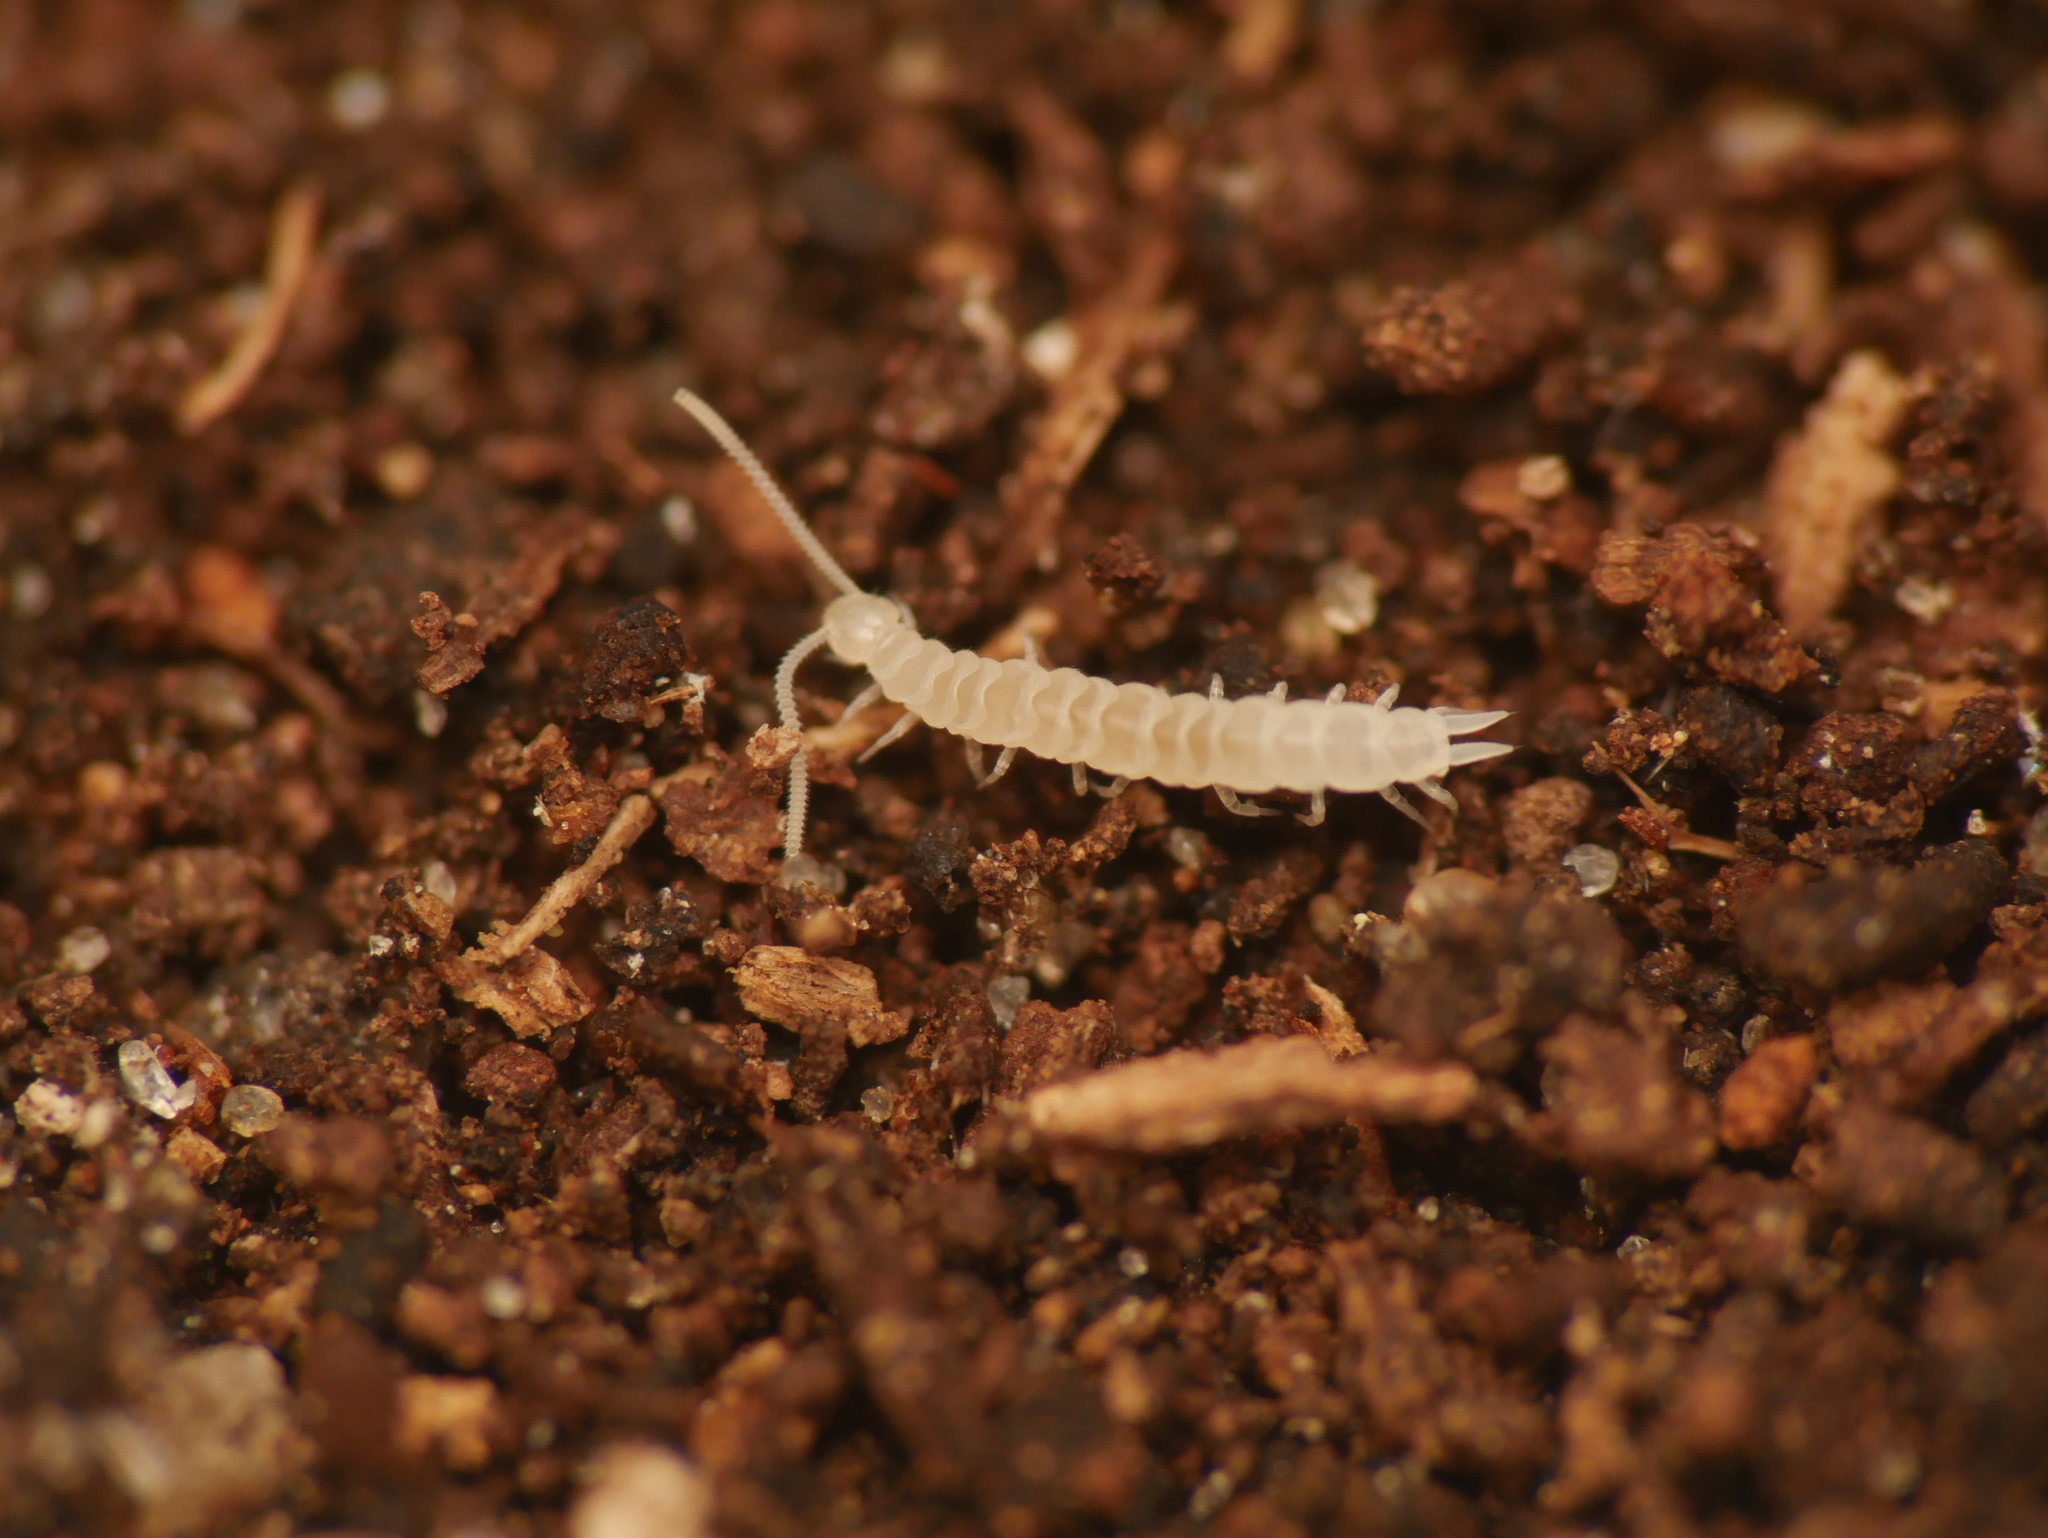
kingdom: Animalia
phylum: Arthropoda
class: Symphyla
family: Scutigerellidae
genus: Scutigerella
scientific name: Scutigerella
